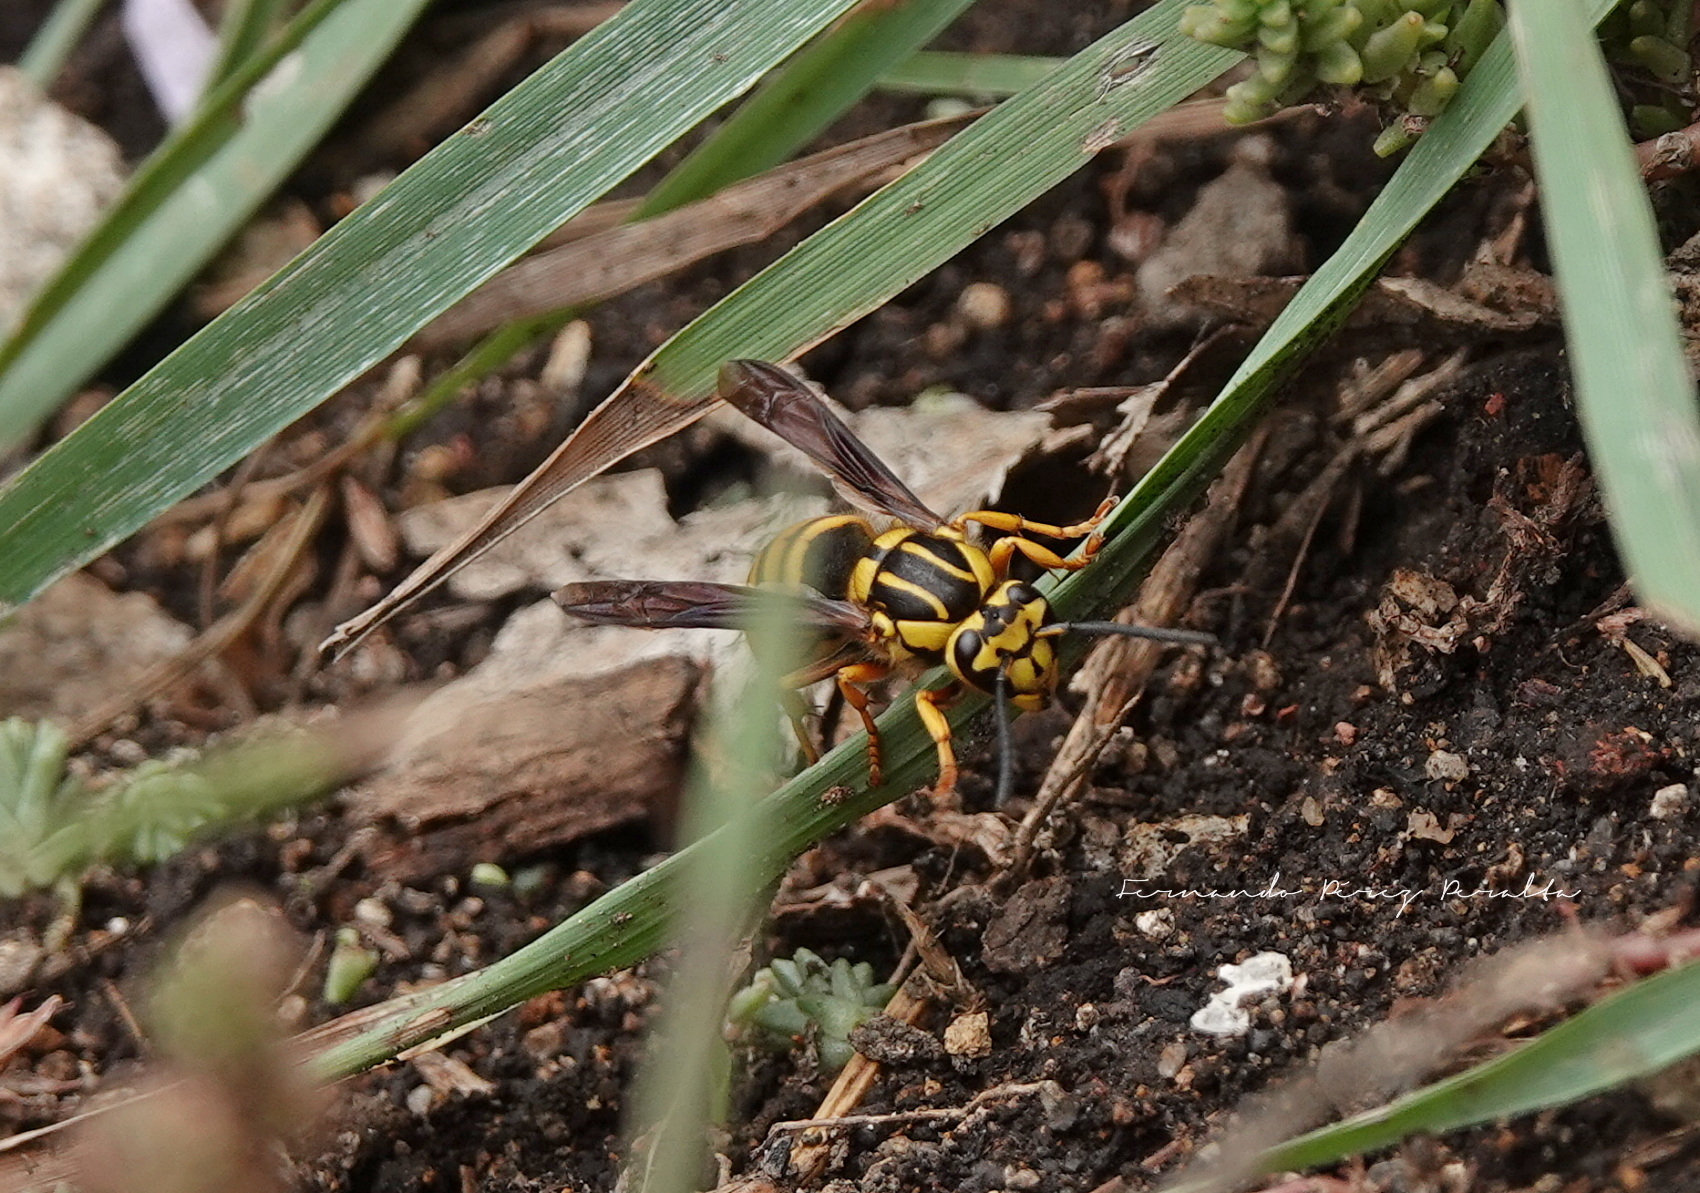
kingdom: Animalia
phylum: Arthropoda
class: Insecta
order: Hymenoptera
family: Vespidae
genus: Vespula
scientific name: Vespula squamosa
